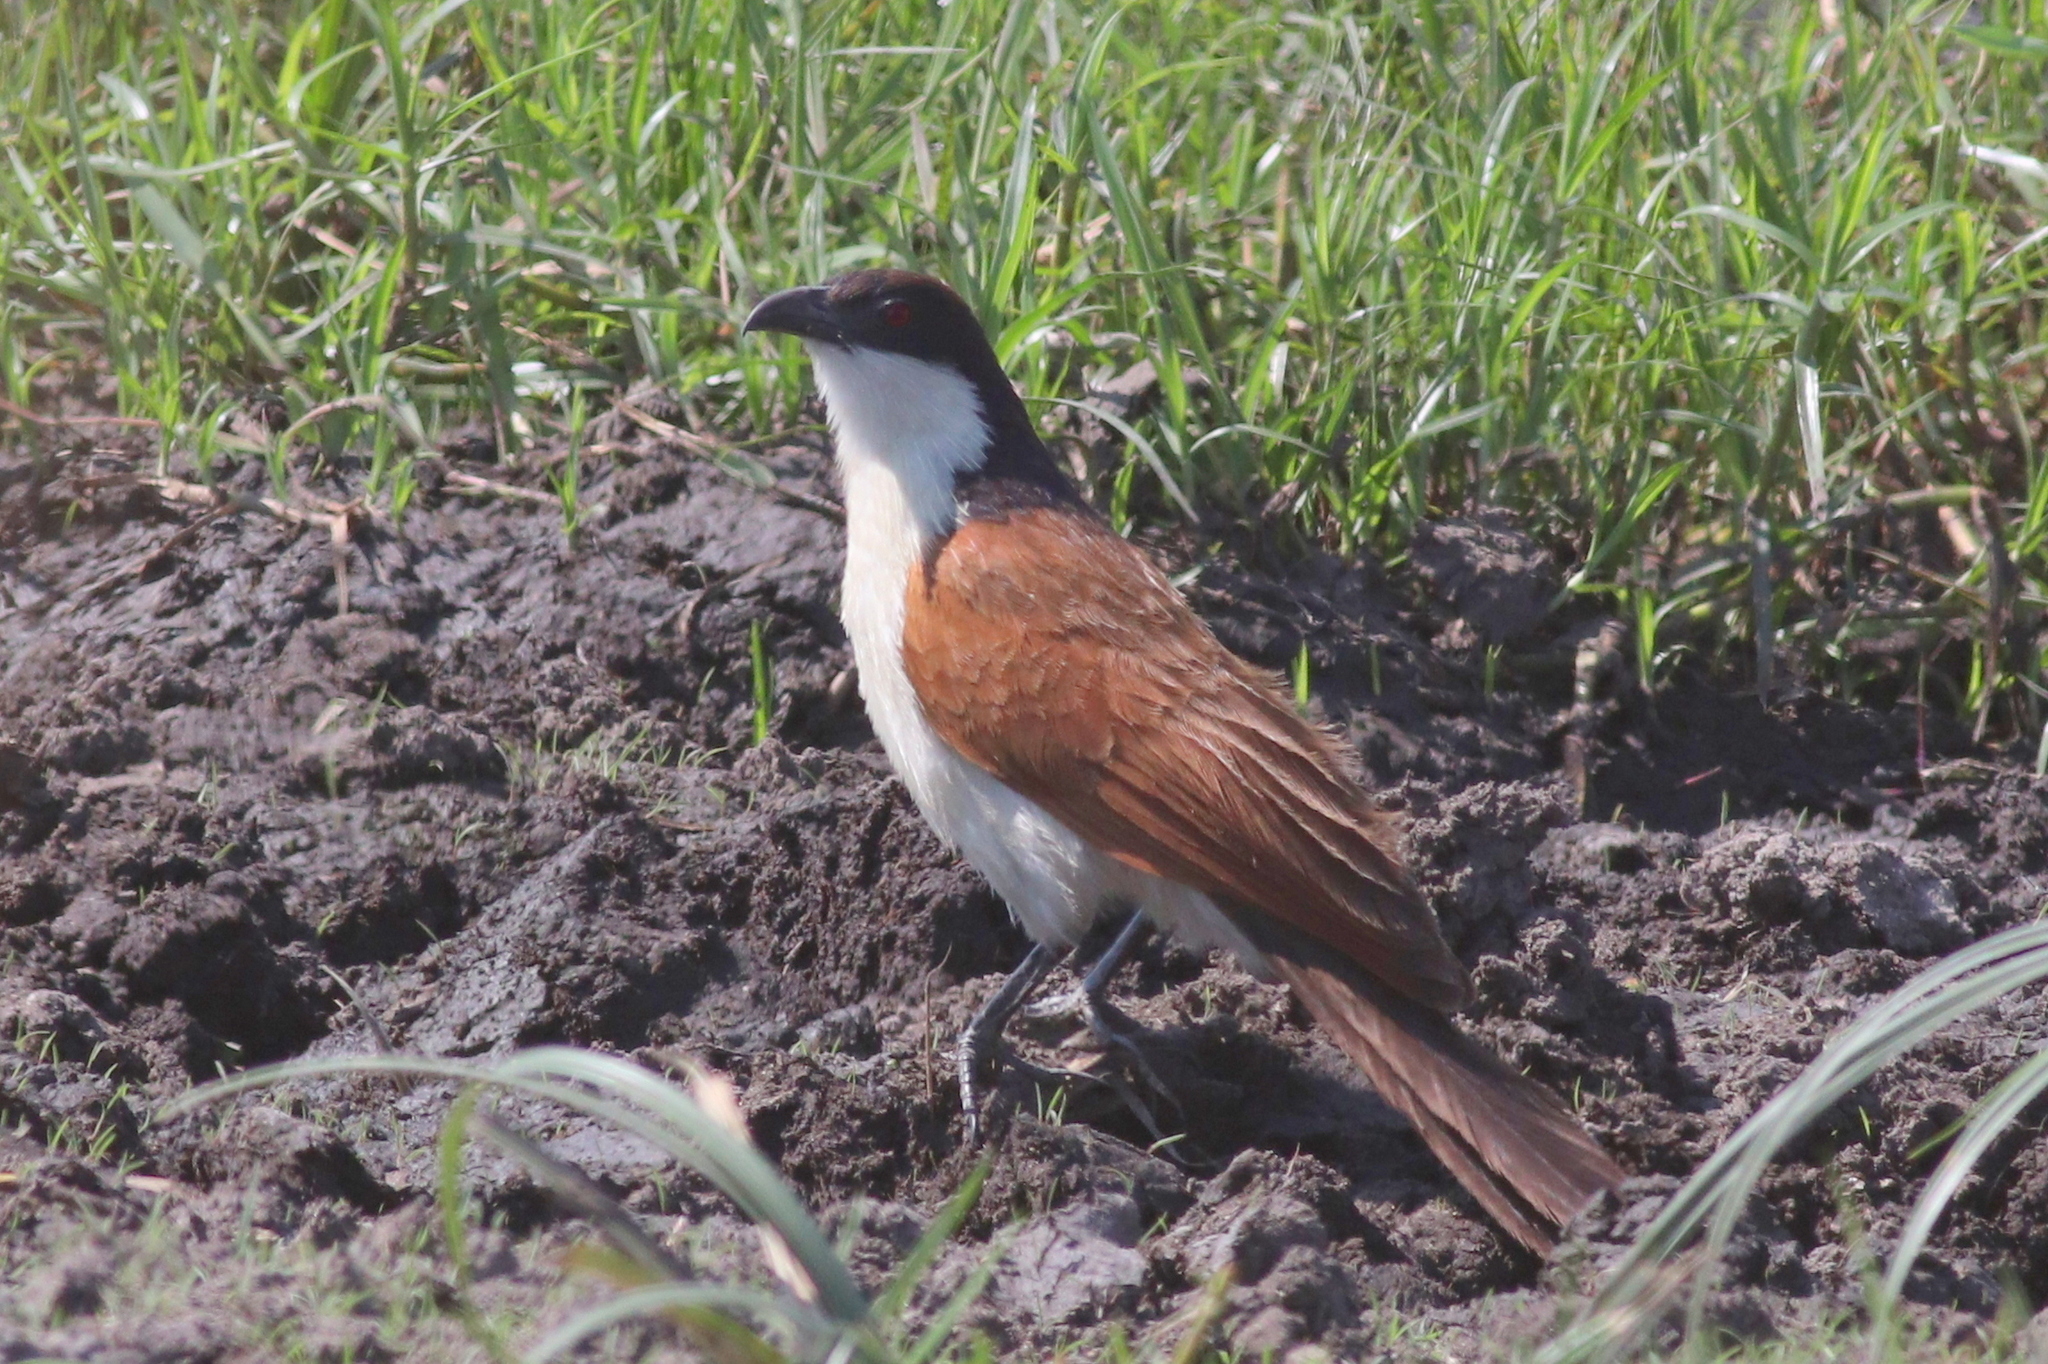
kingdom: Animalia
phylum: Chordata
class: Aves
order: Cuculiformes
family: Cuculidae
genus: Centropus
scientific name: Centropus cupreicaudus
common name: Coppery-tailed coucal
